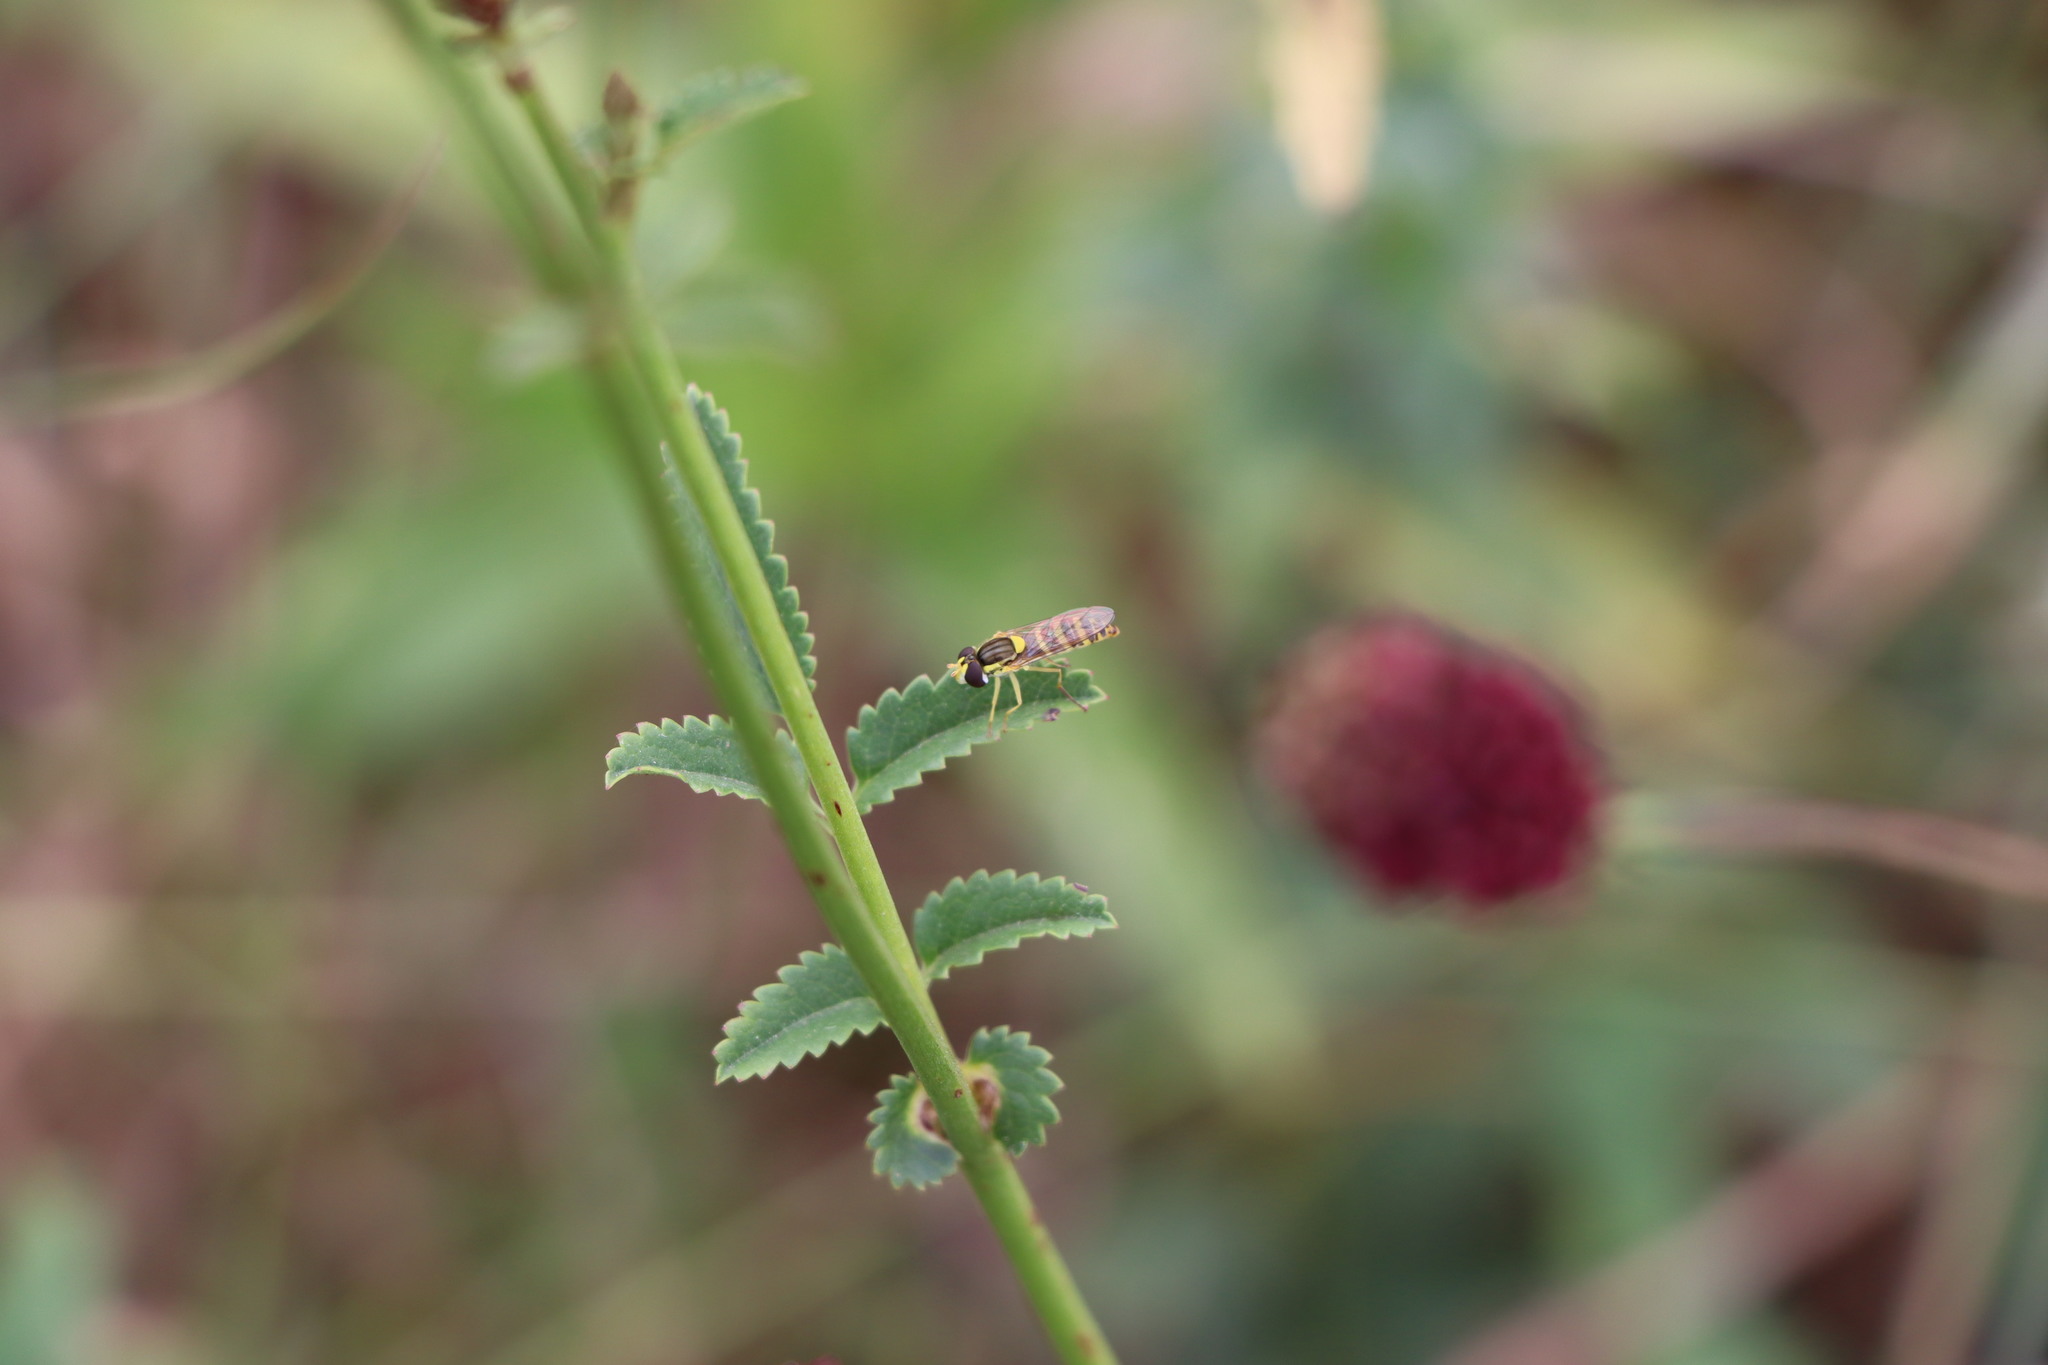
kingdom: Animalia
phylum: Arthropoda
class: Insecta
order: Diptera
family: Syrphidae
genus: Sphaerophoria
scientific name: Sphaerophoria
